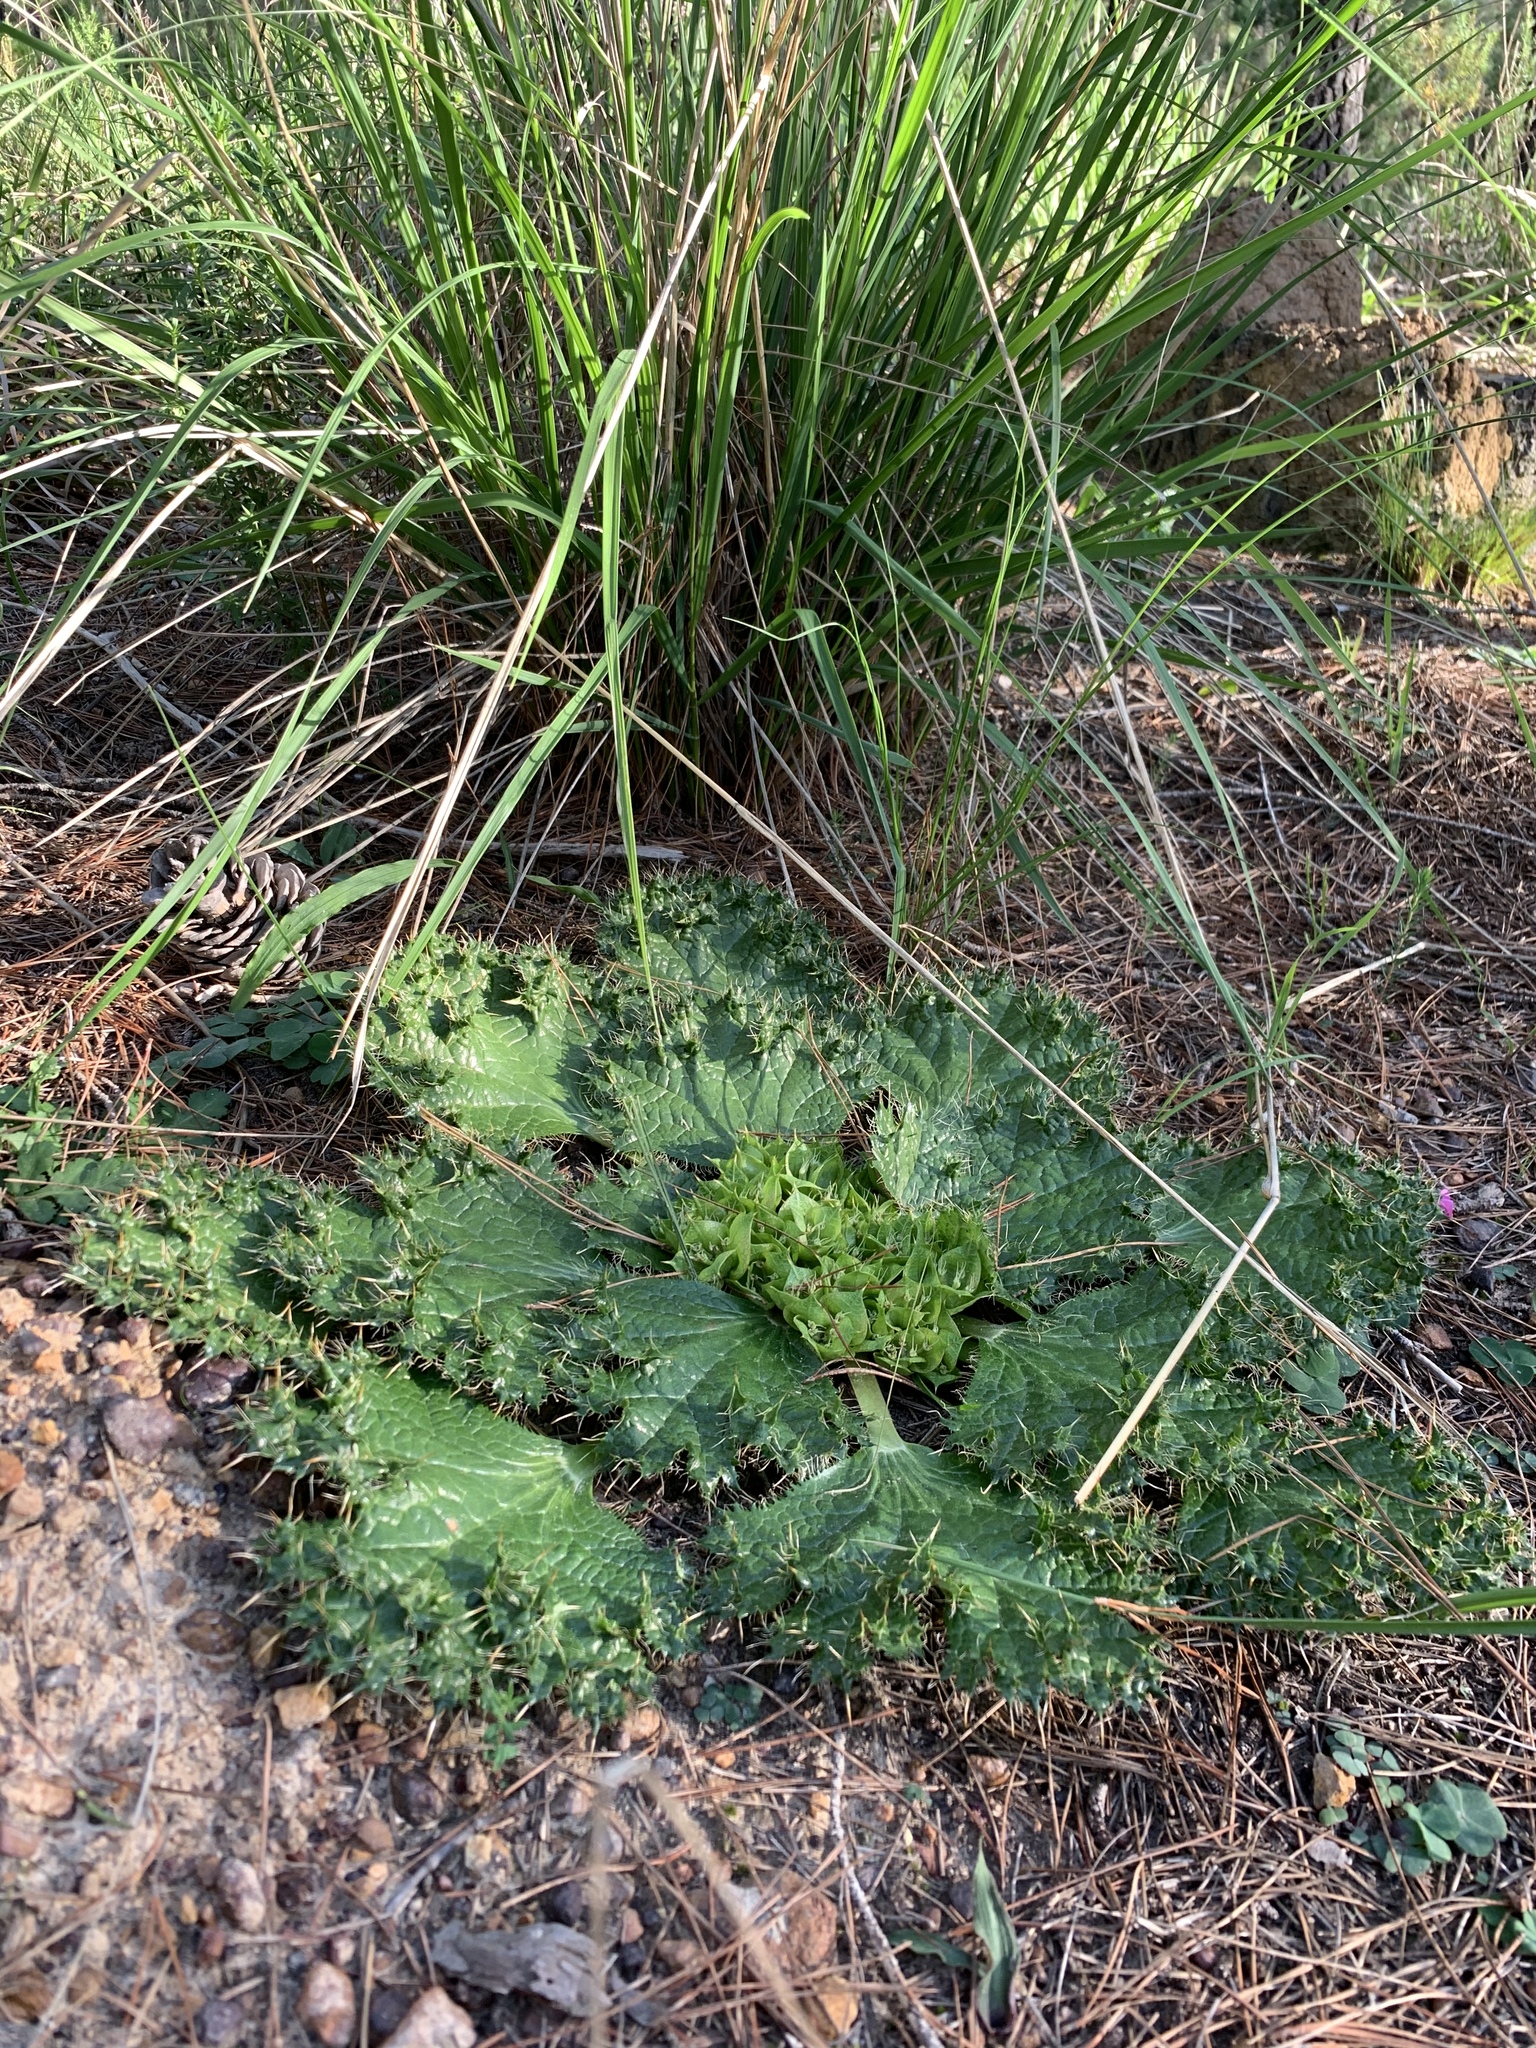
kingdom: Plantae
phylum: Tracheophyta
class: Magnoliopsida
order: Apiales
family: Apiaceae
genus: Arctopus
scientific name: Arctopus monacanthus
